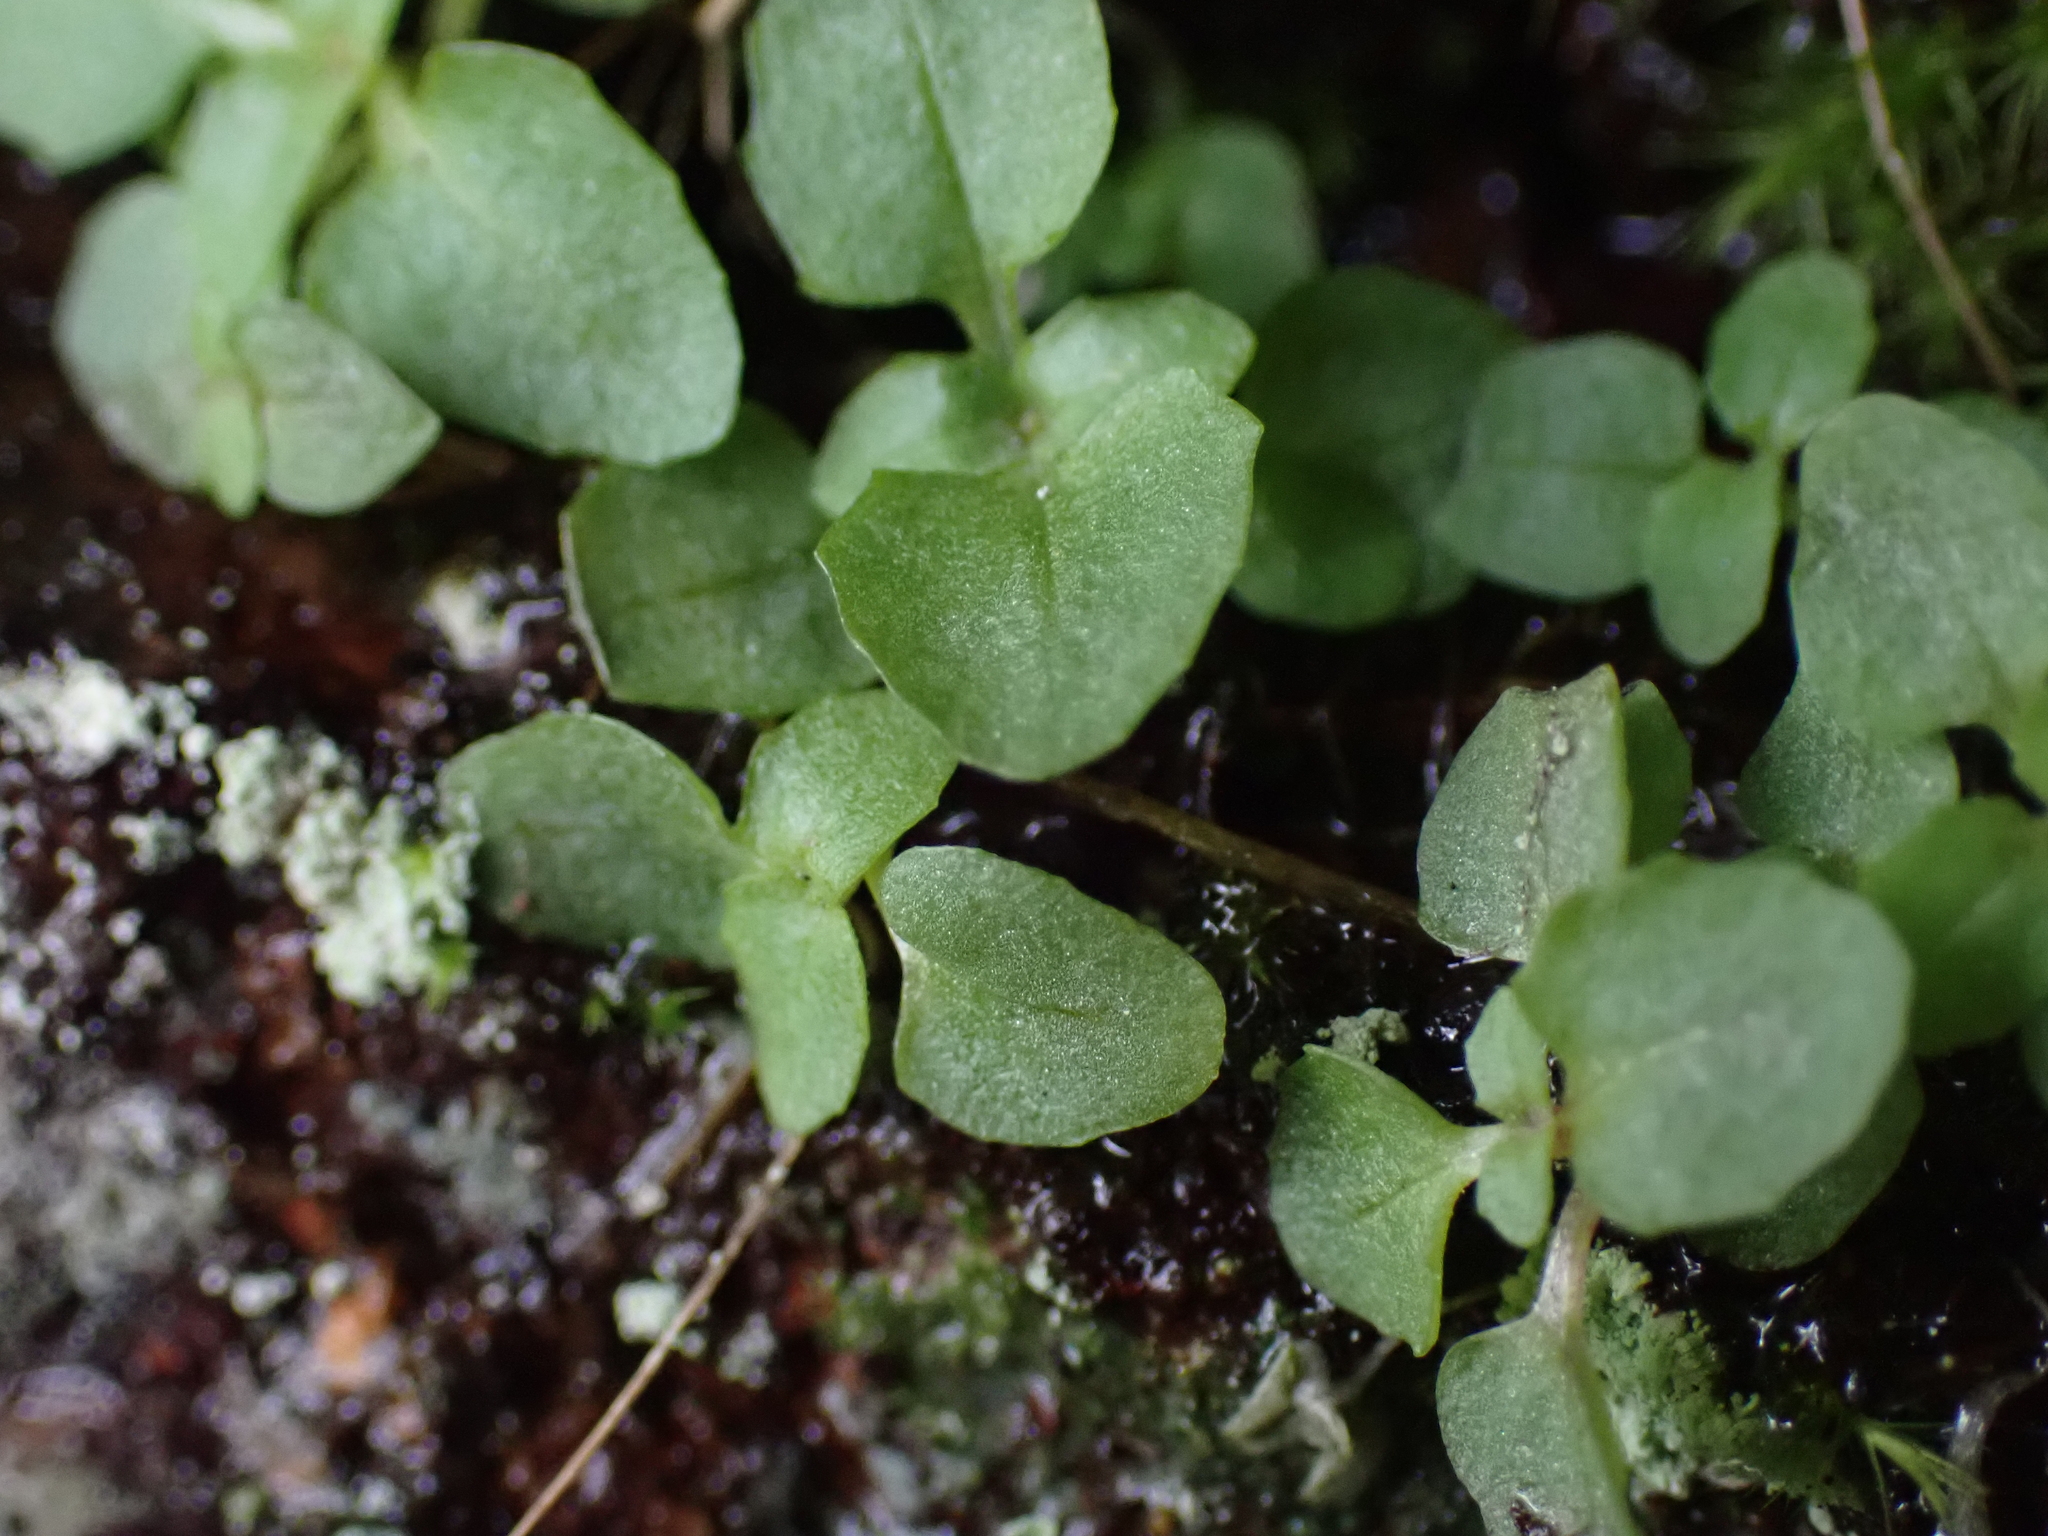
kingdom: Plantae
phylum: Tracheophyta
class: Magnoliopsida
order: Lamiales
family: Phrymaceae
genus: Erythranthe
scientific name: Erythranthe alsinoides
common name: Chickweed monkeyflower
